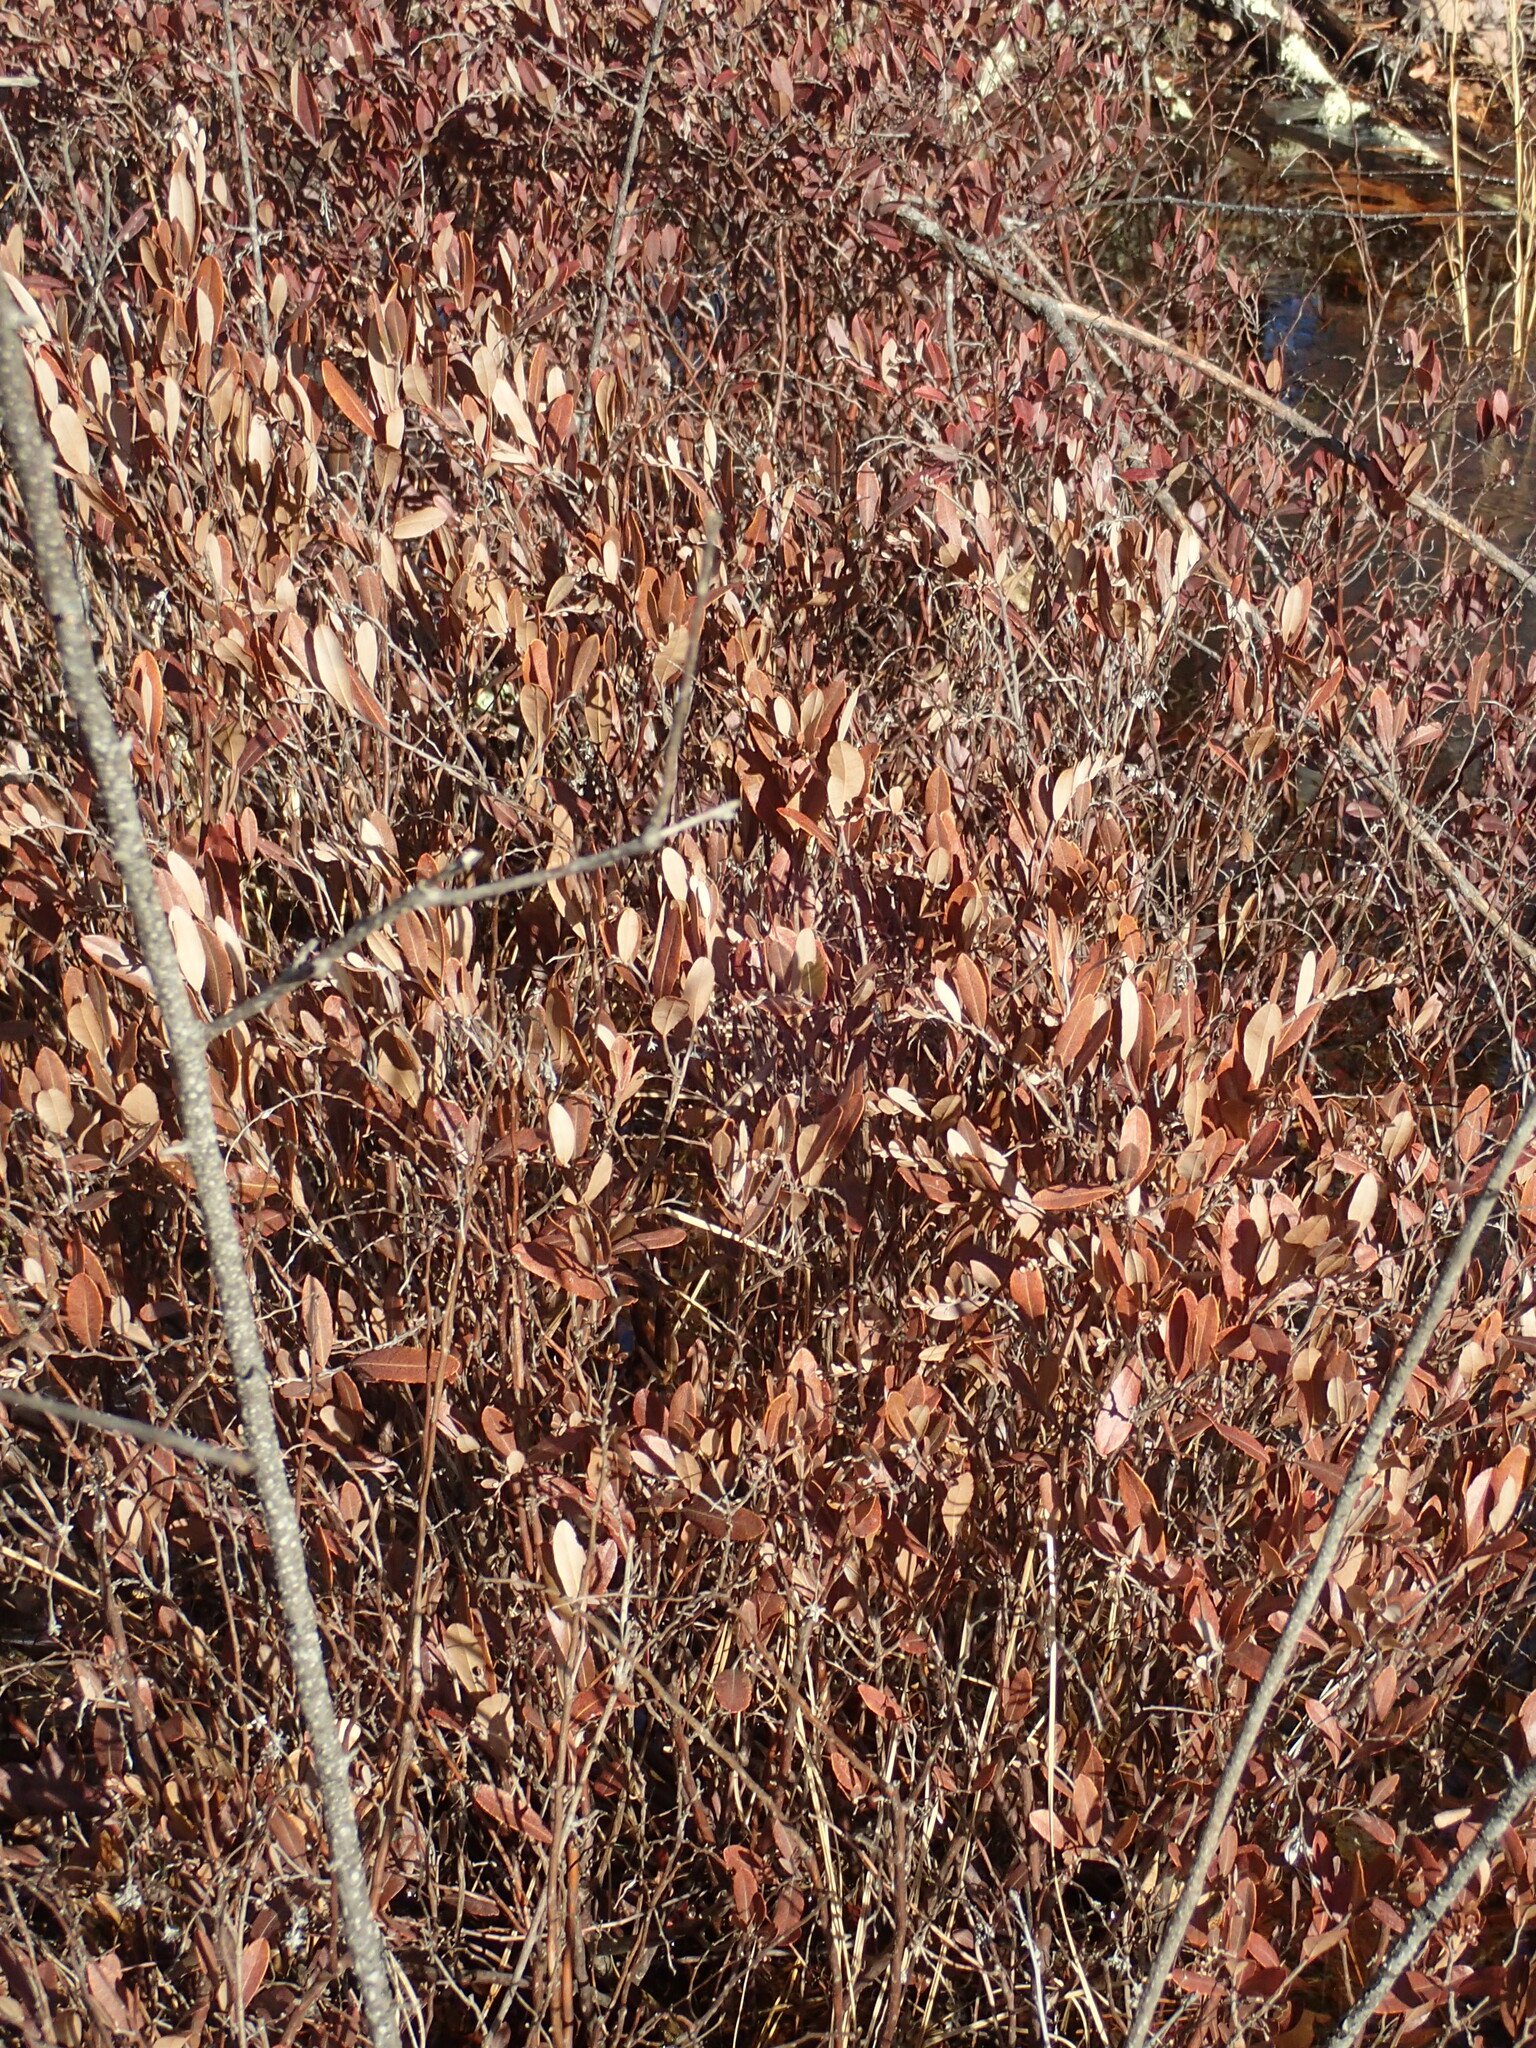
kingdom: Plantae
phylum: Tracheophyta
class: Magnoliopsida
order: Ericales
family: Ericaceae
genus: Chamaedaphne
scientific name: Chamaedaphne calyculata
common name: Leatherleaf
